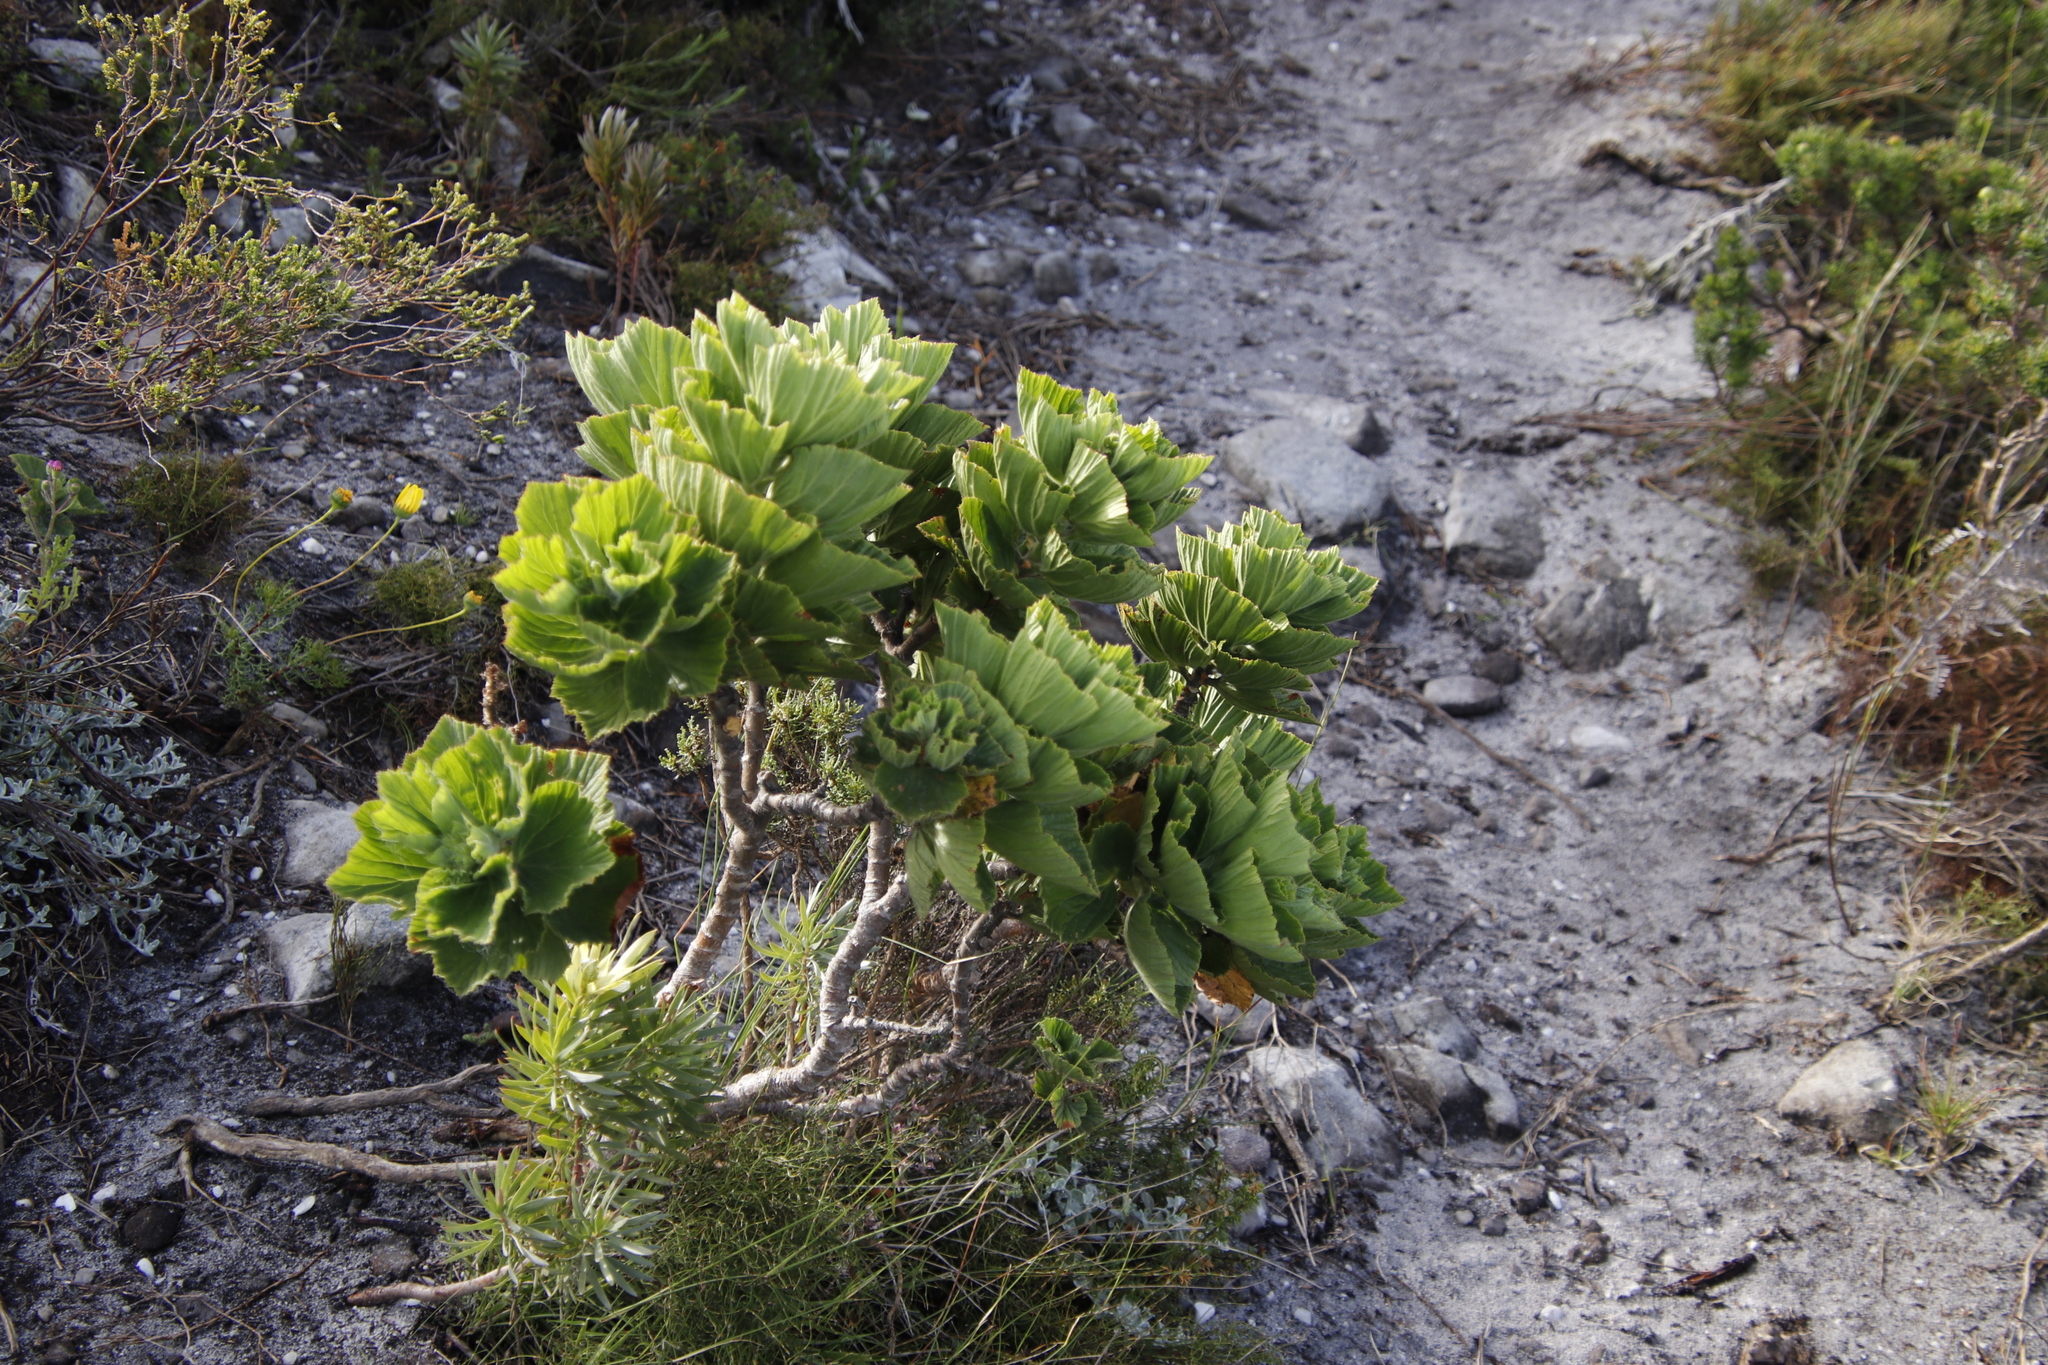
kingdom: Plantae
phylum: Tracheophyta
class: Magnoliopsida
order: Geraniales
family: Geraniaceae
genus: Pelargonium
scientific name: Pelargonium cucullatum
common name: Tree pelargonium
